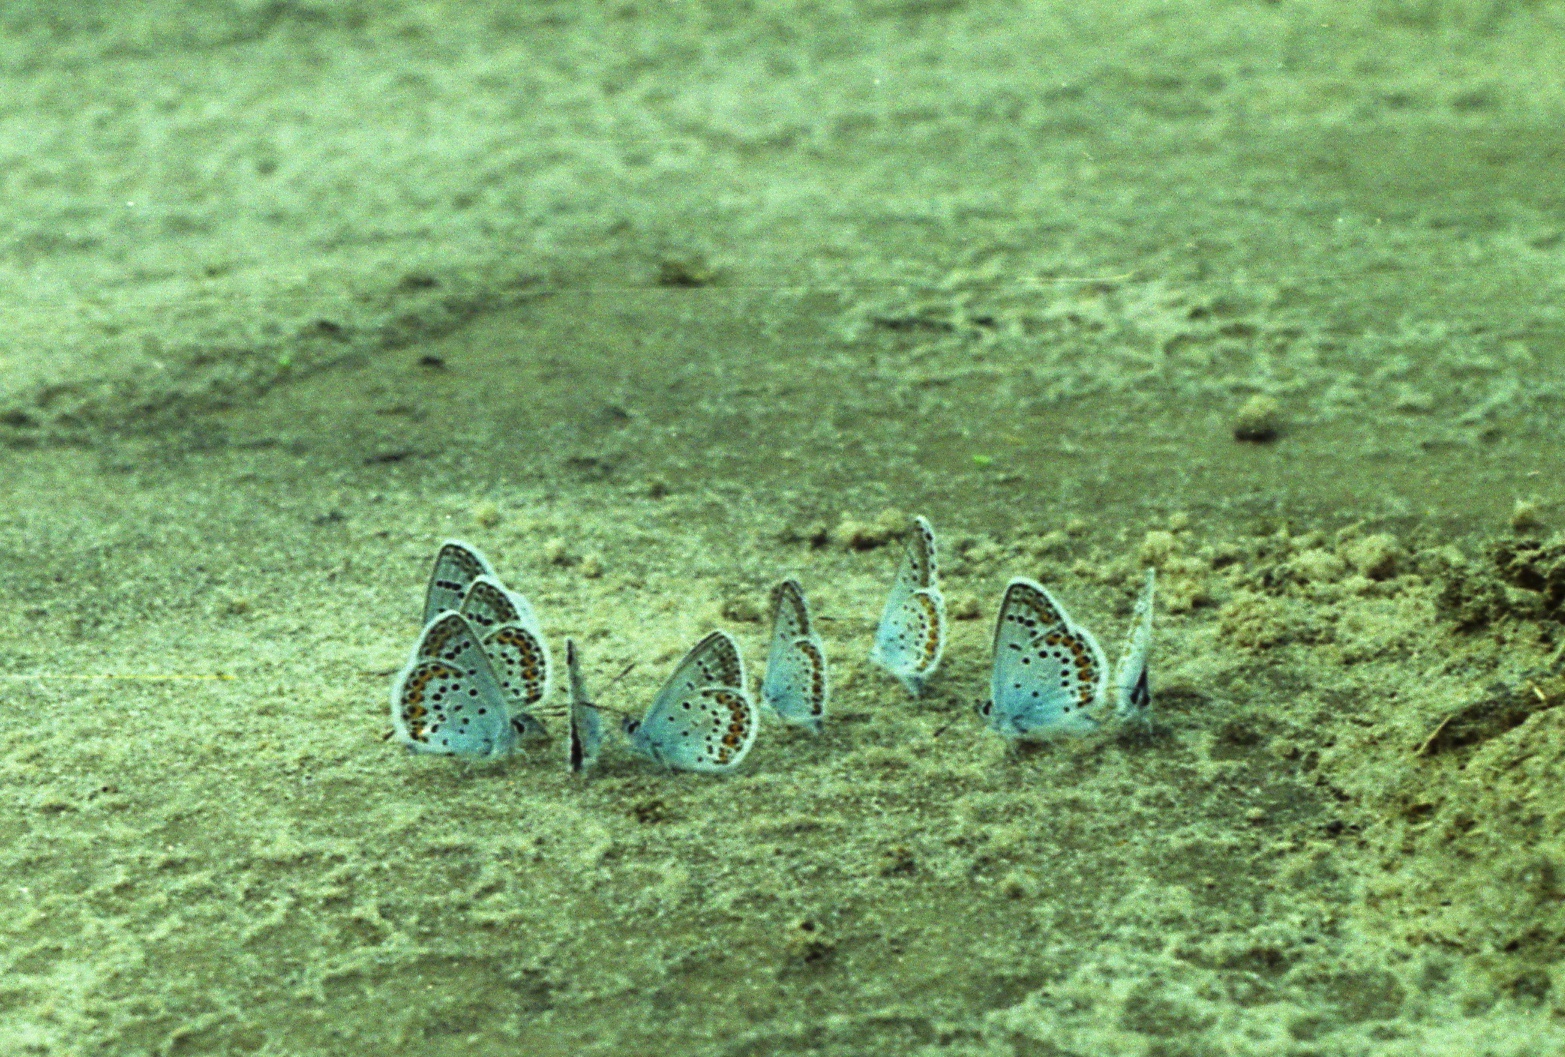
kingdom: Animalia
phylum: Arthropoda
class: Insecta
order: Lepidoptera
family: Lycaenidae
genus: Plebejus
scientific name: Plebejus argus
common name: Silver-studded blue
